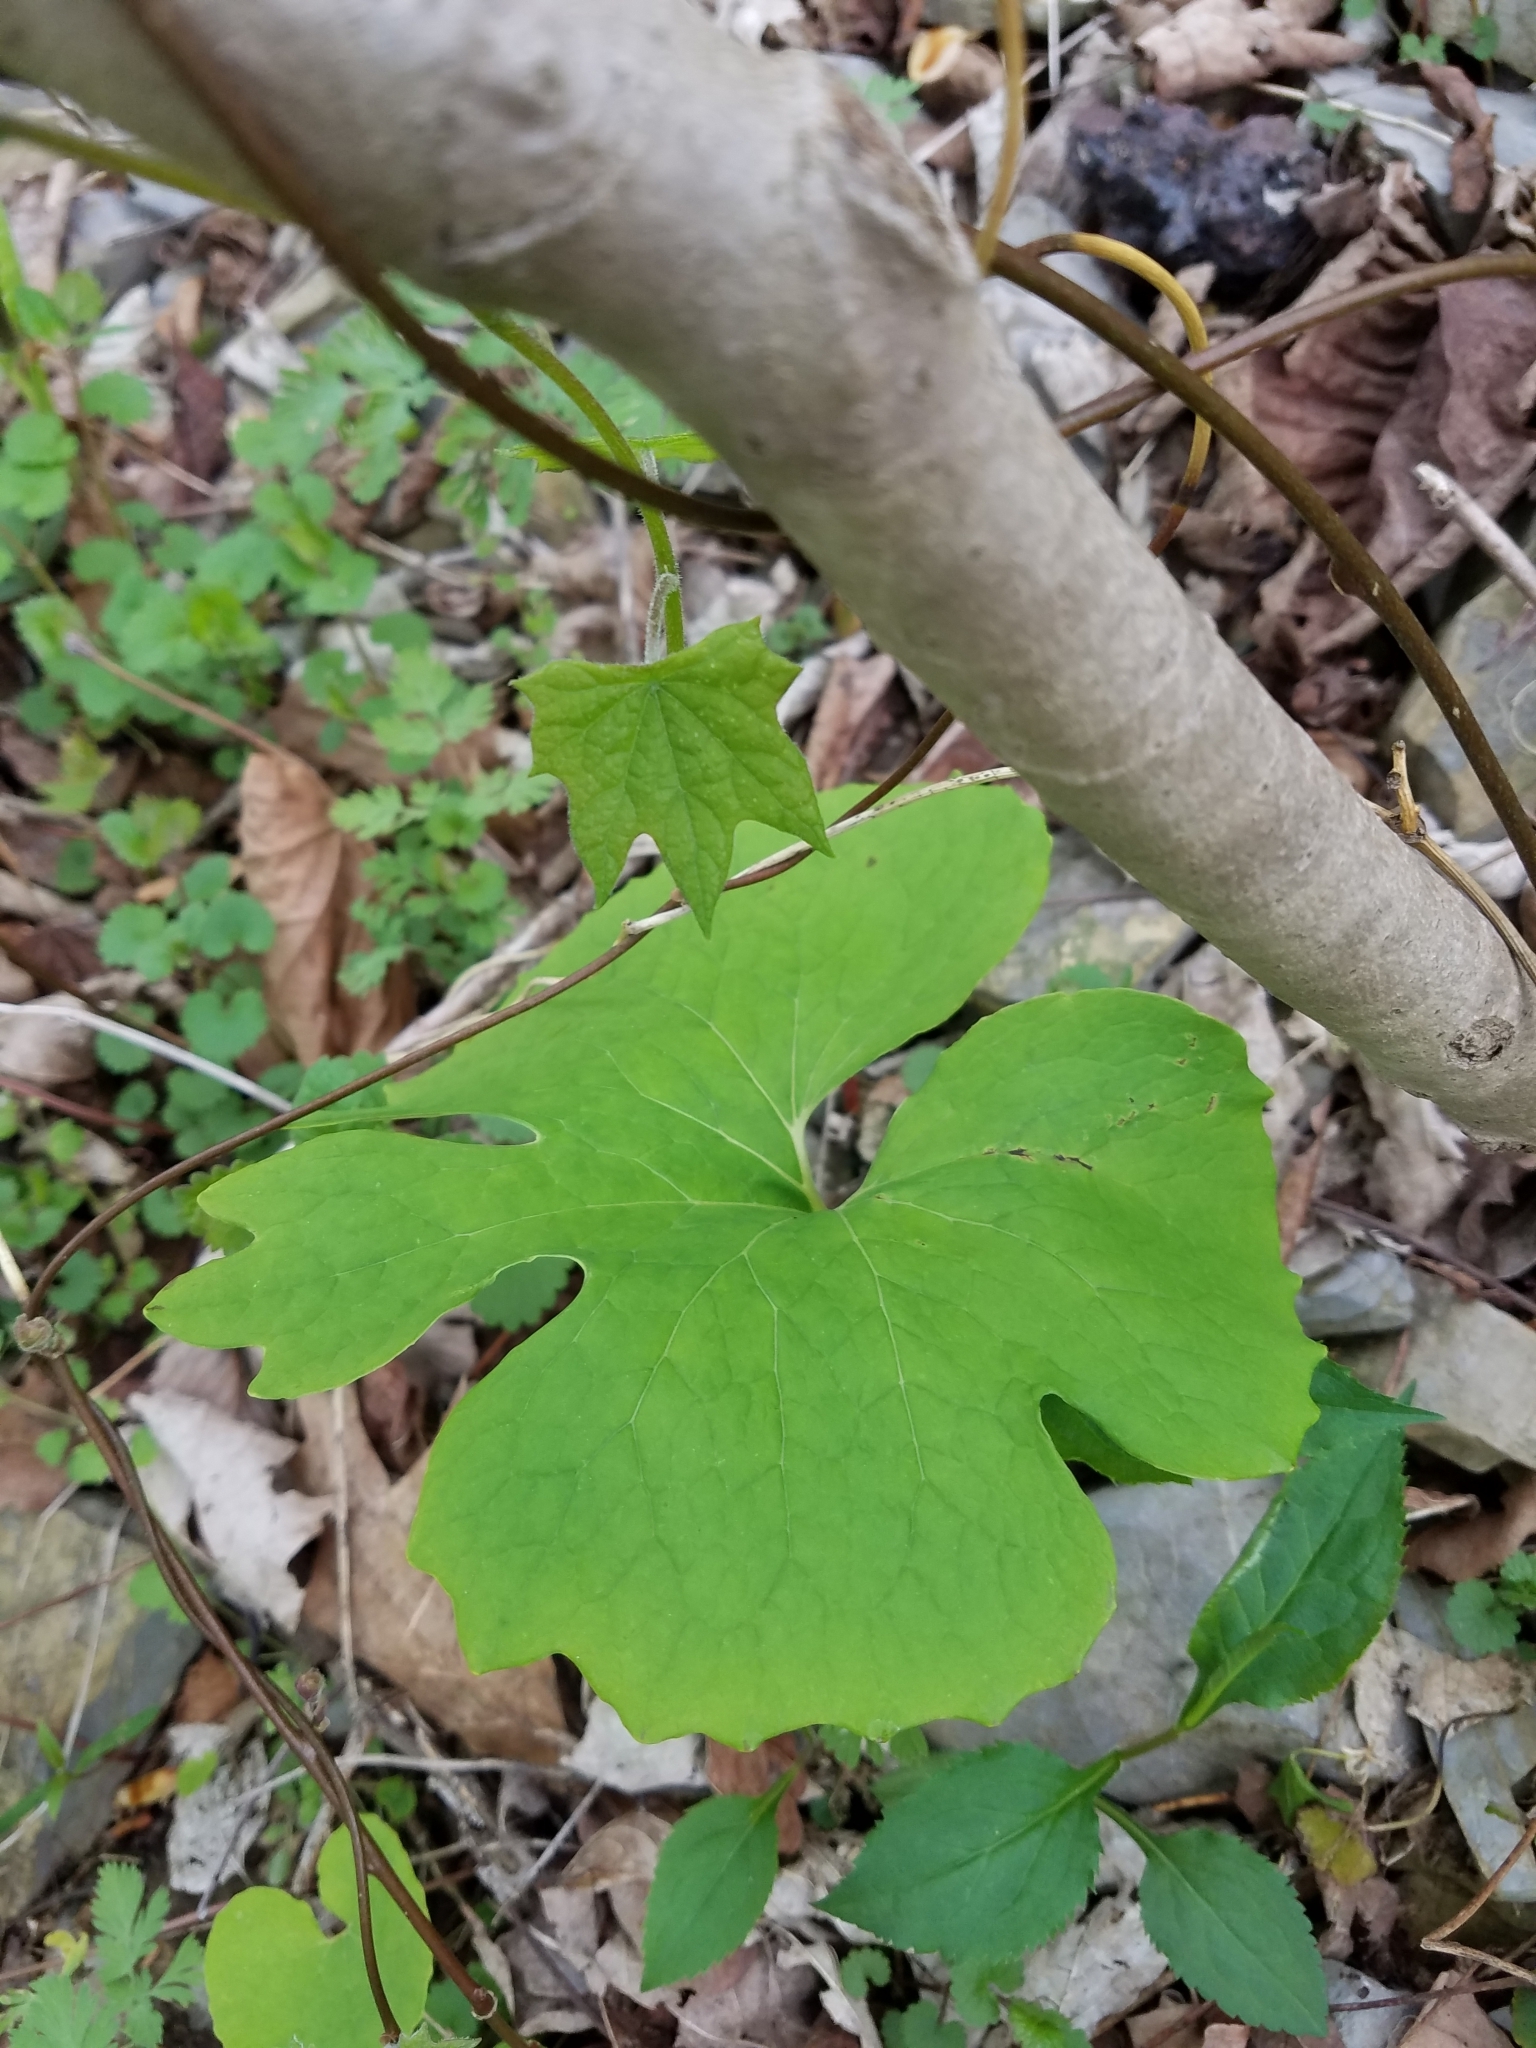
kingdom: Plantae
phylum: Tracheophyta
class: Magnoliopsida
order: Ranunculales
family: Papaveraceae
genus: Sanguinaria
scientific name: Sanguinaria canadensis
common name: Bloodroot
